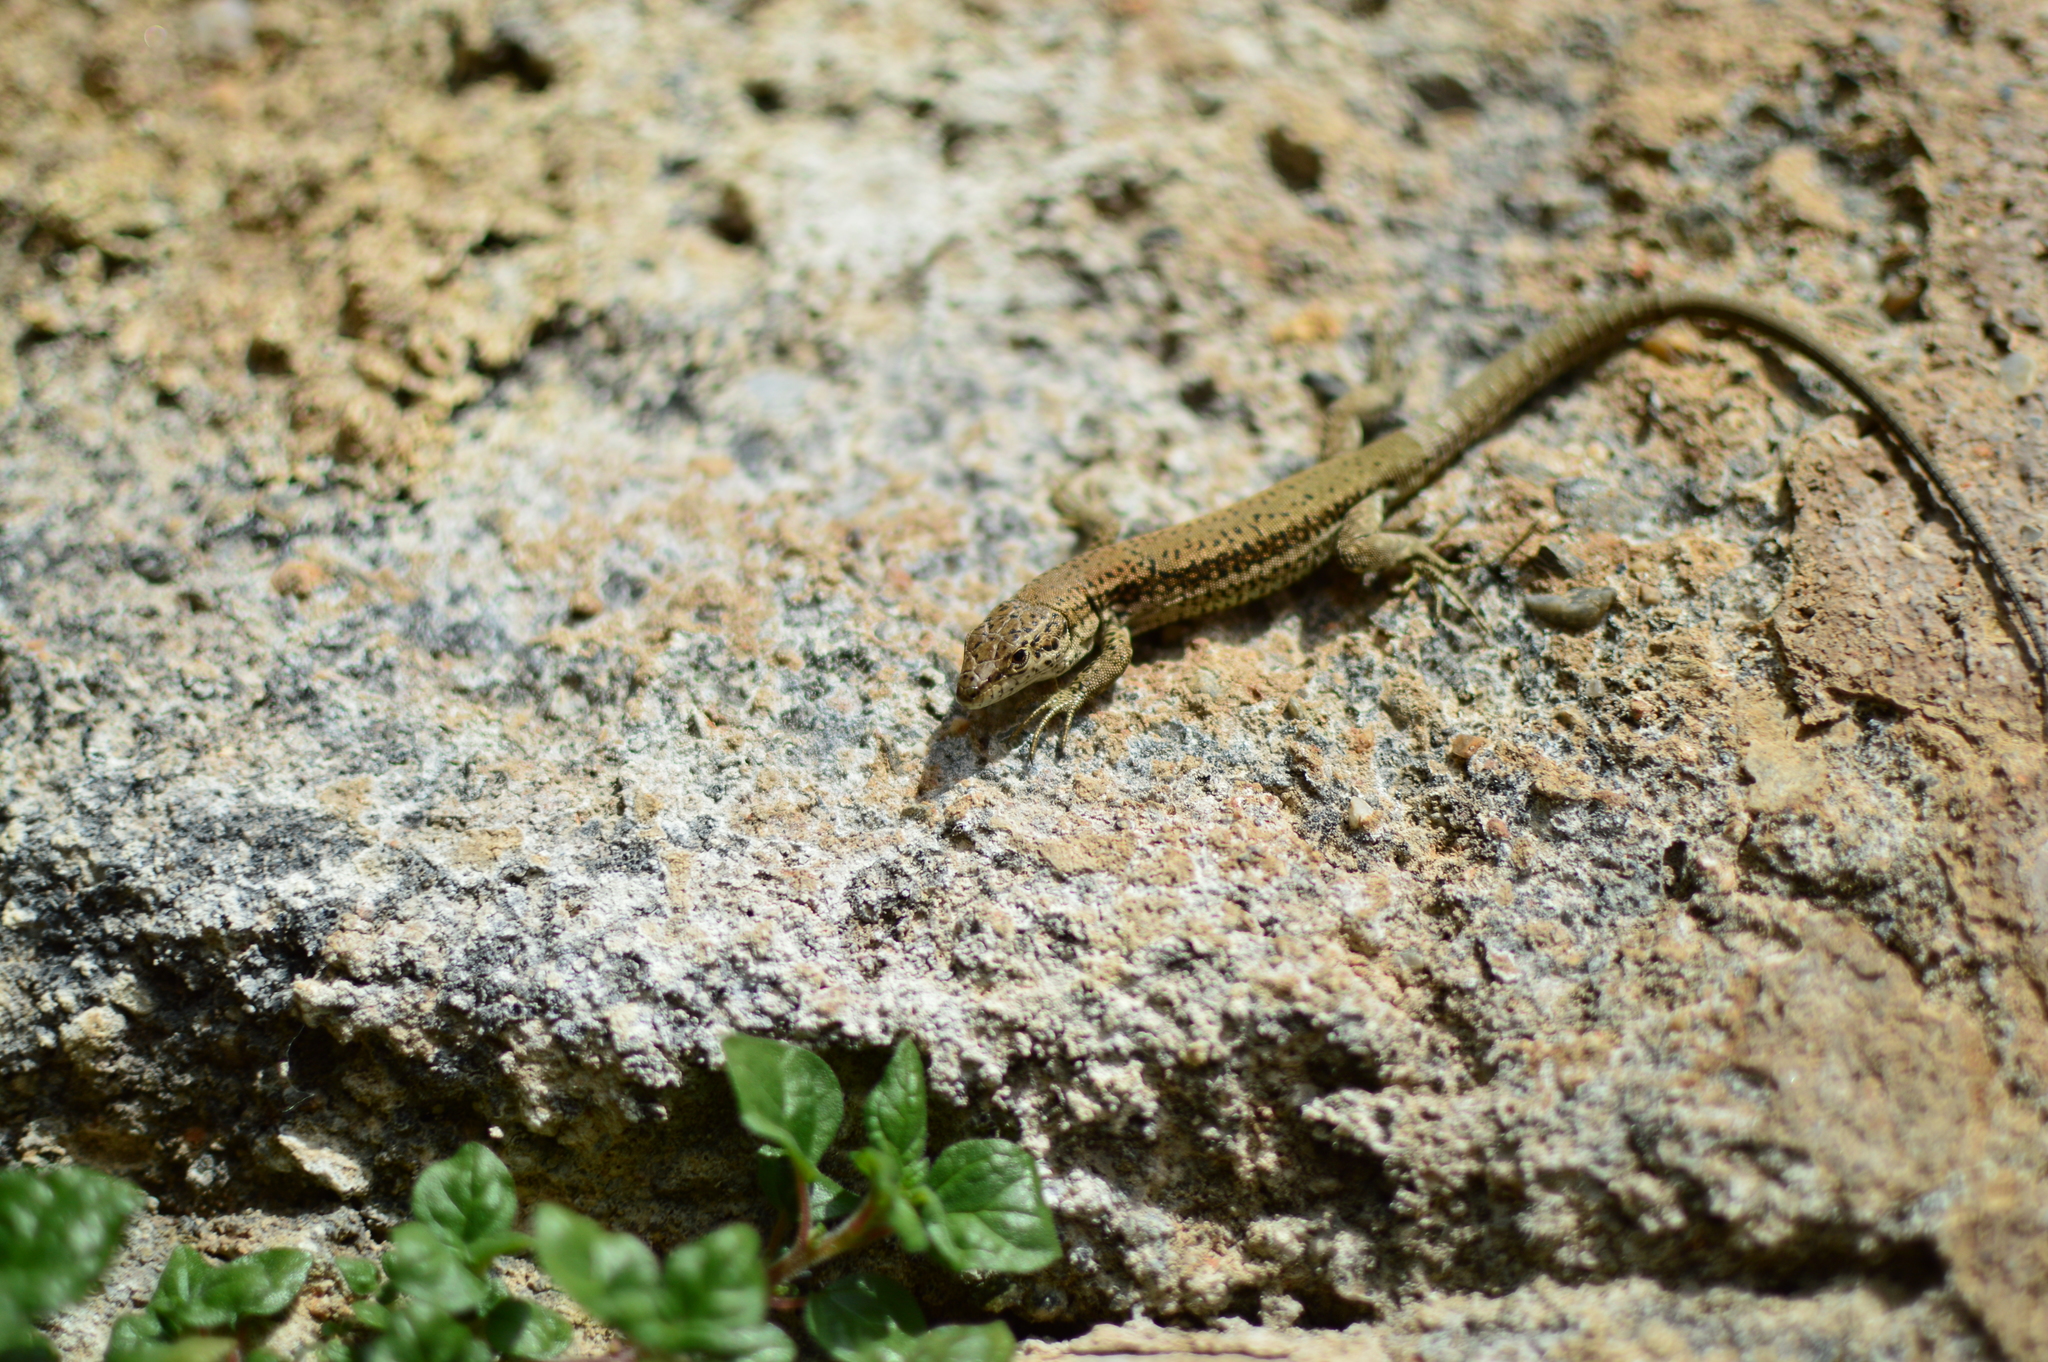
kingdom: Animalia
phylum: Chordata
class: Squamata
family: Lacertidae
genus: Podarcis
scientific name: Podarcis vaucheri
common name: Vaucher's wall lizard
